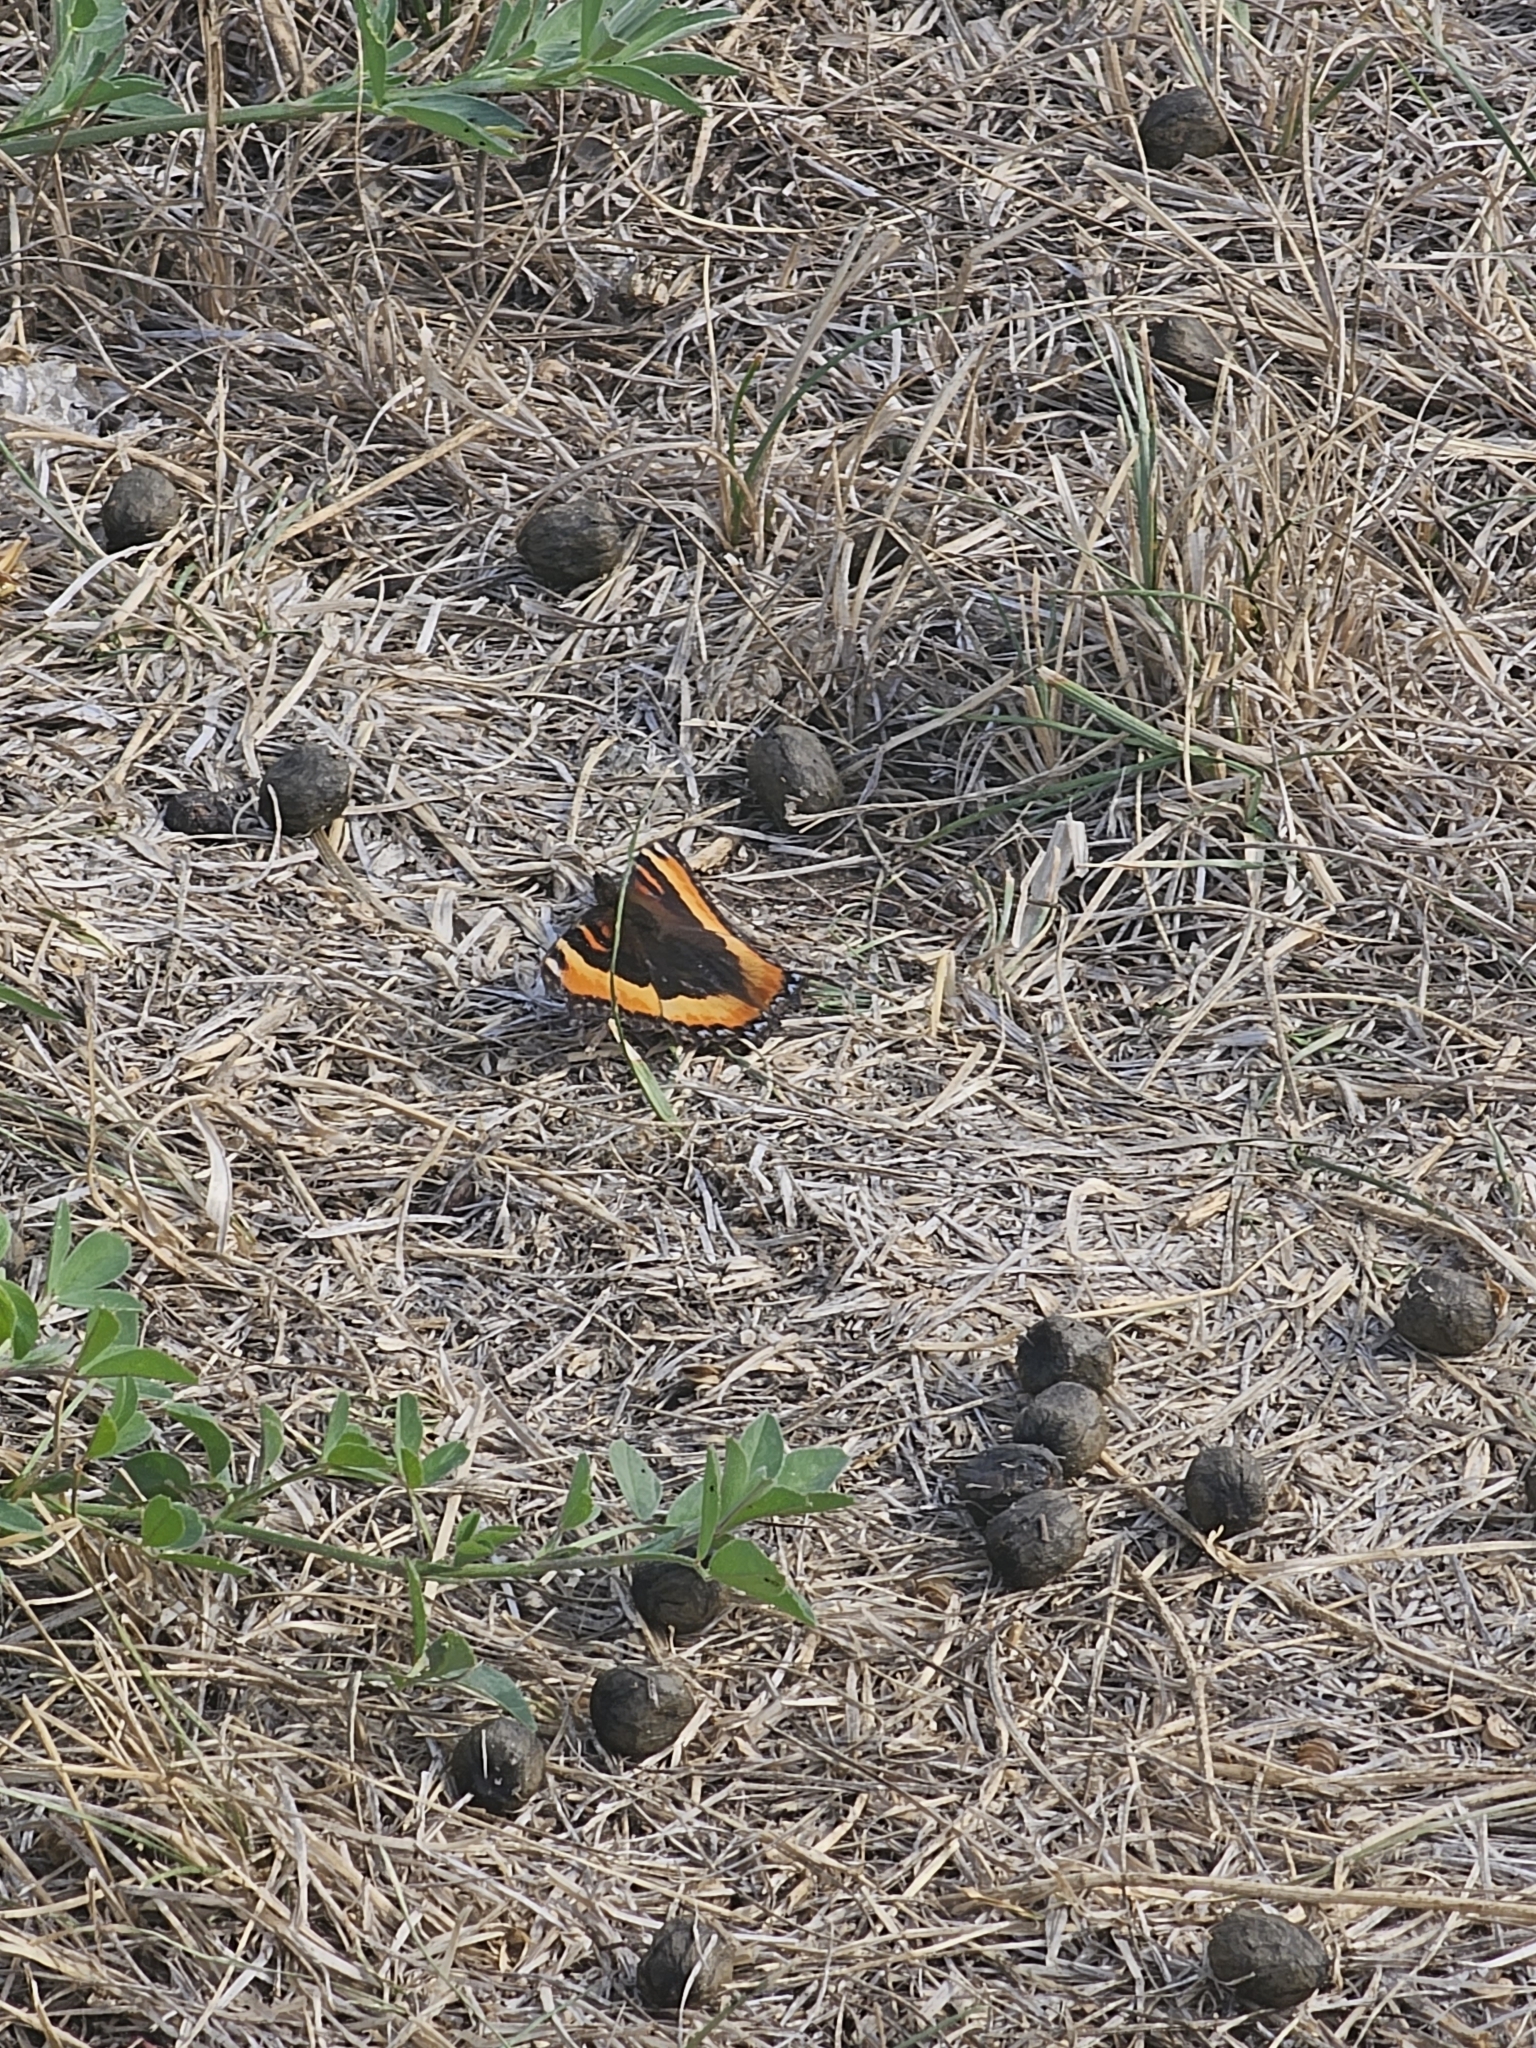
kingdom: Animalia
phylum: Arthropoda
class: Insecta
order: Lepidoptera
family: Nymphalidae
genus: Aglais
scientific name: Aglais milberti
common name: Milbert's tortoiseshell
